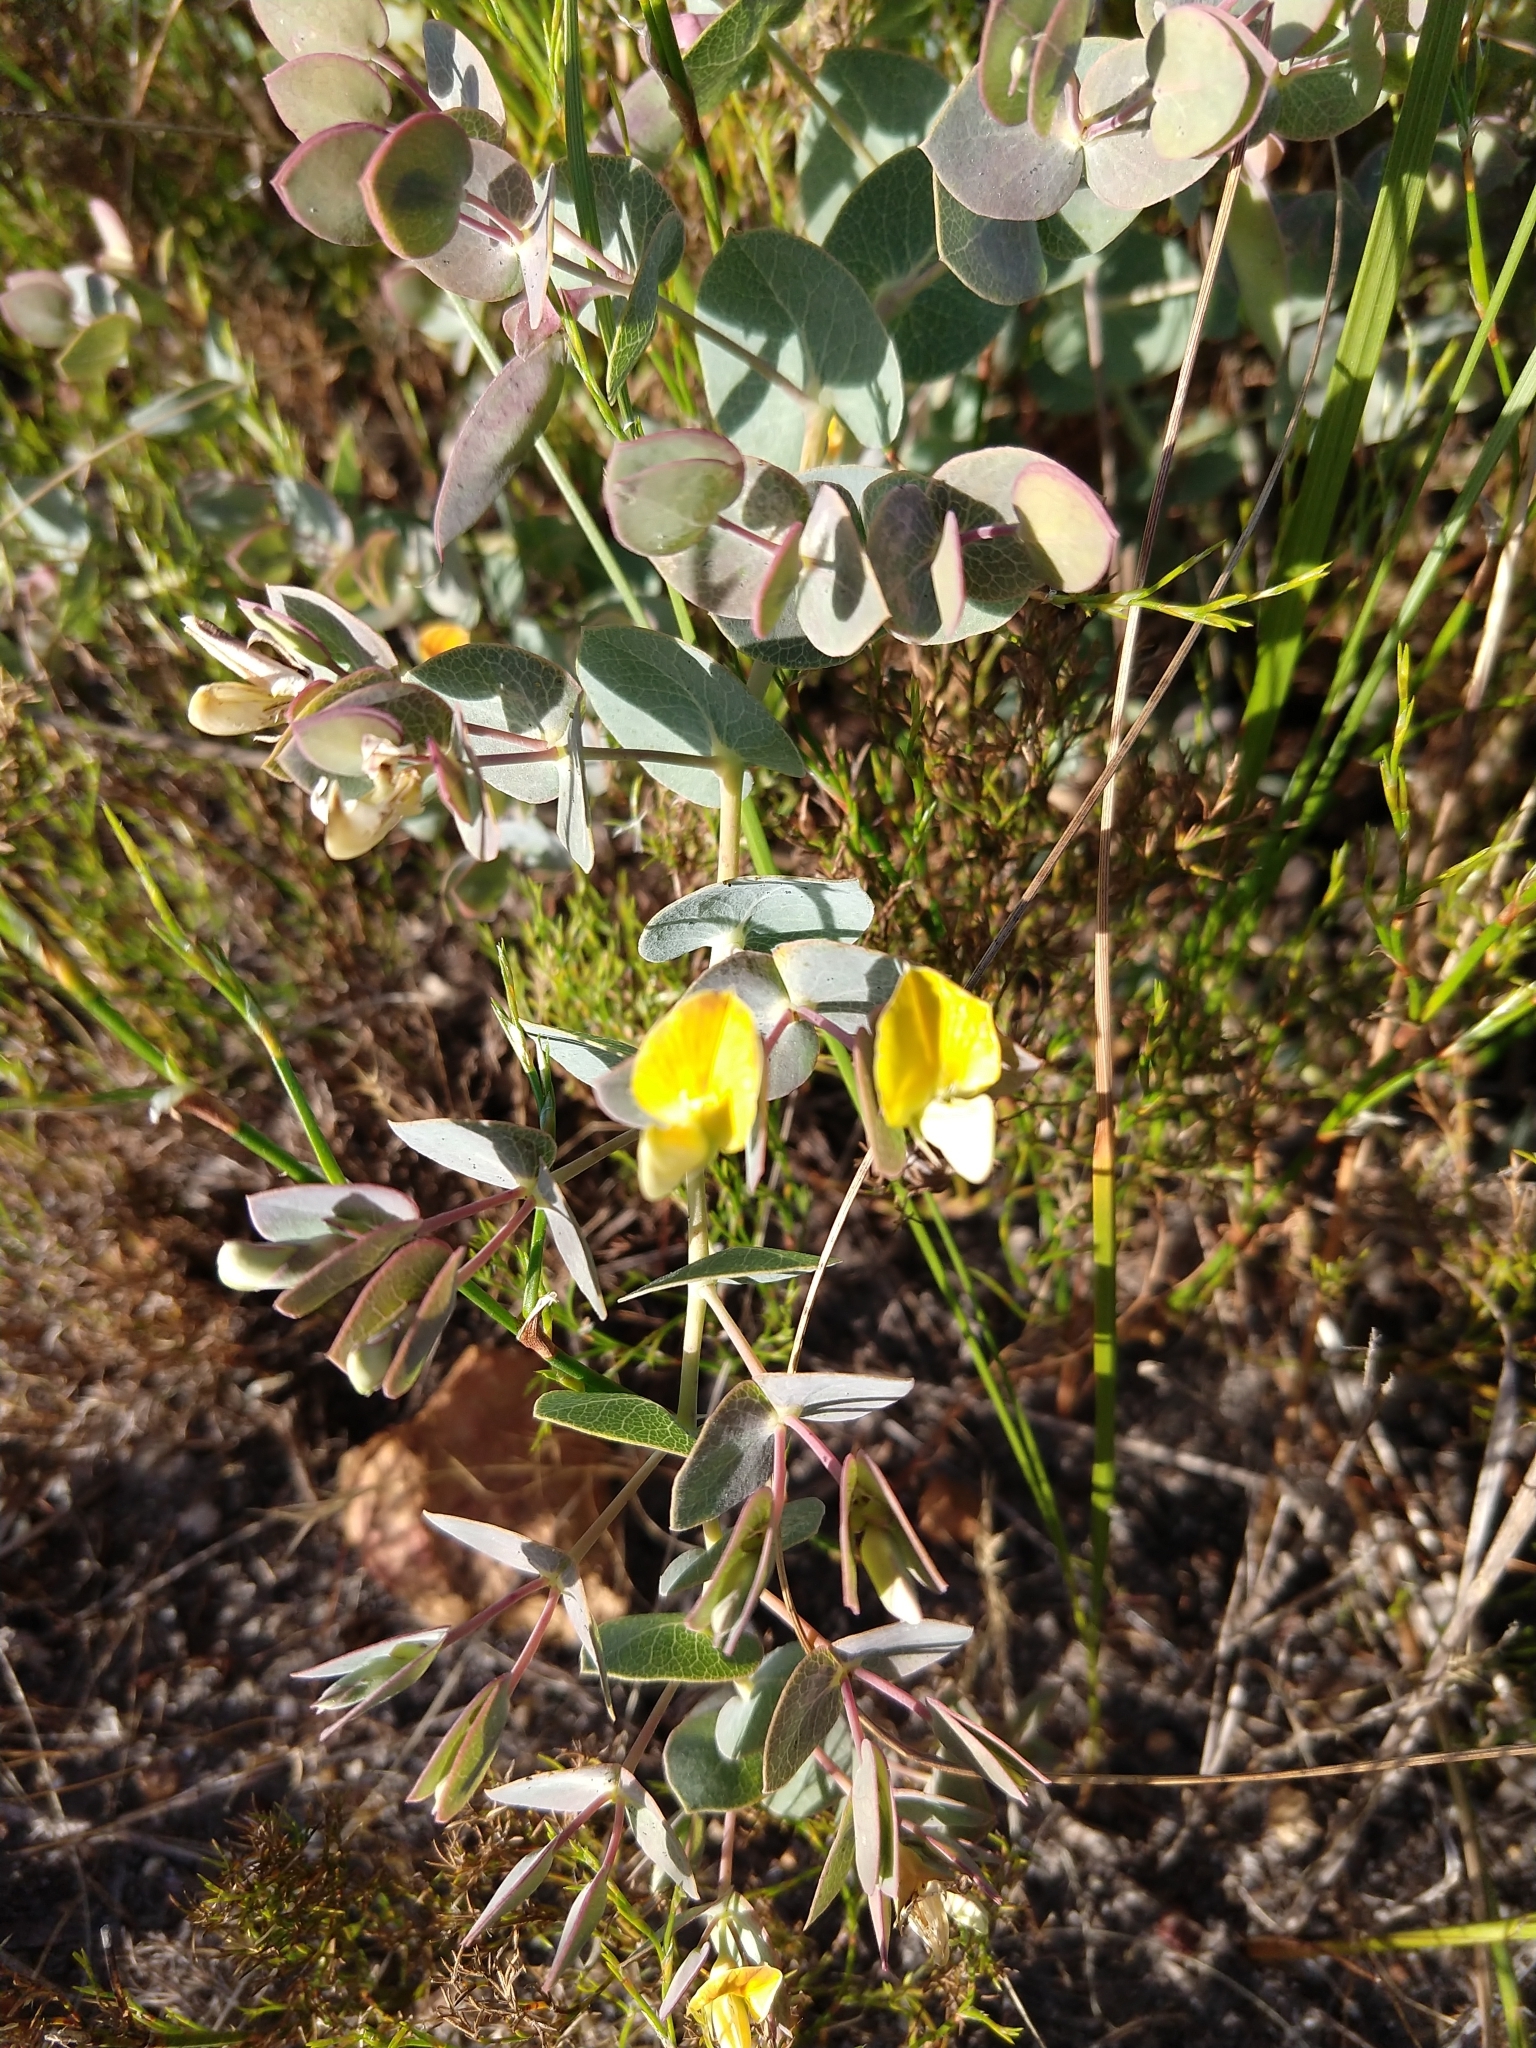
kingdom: Plantae
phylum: Tracheophyta
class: Magnoliopsida
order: Fabales
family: Fabaceae
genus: Rafnia
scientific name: Rafnia acuminata
